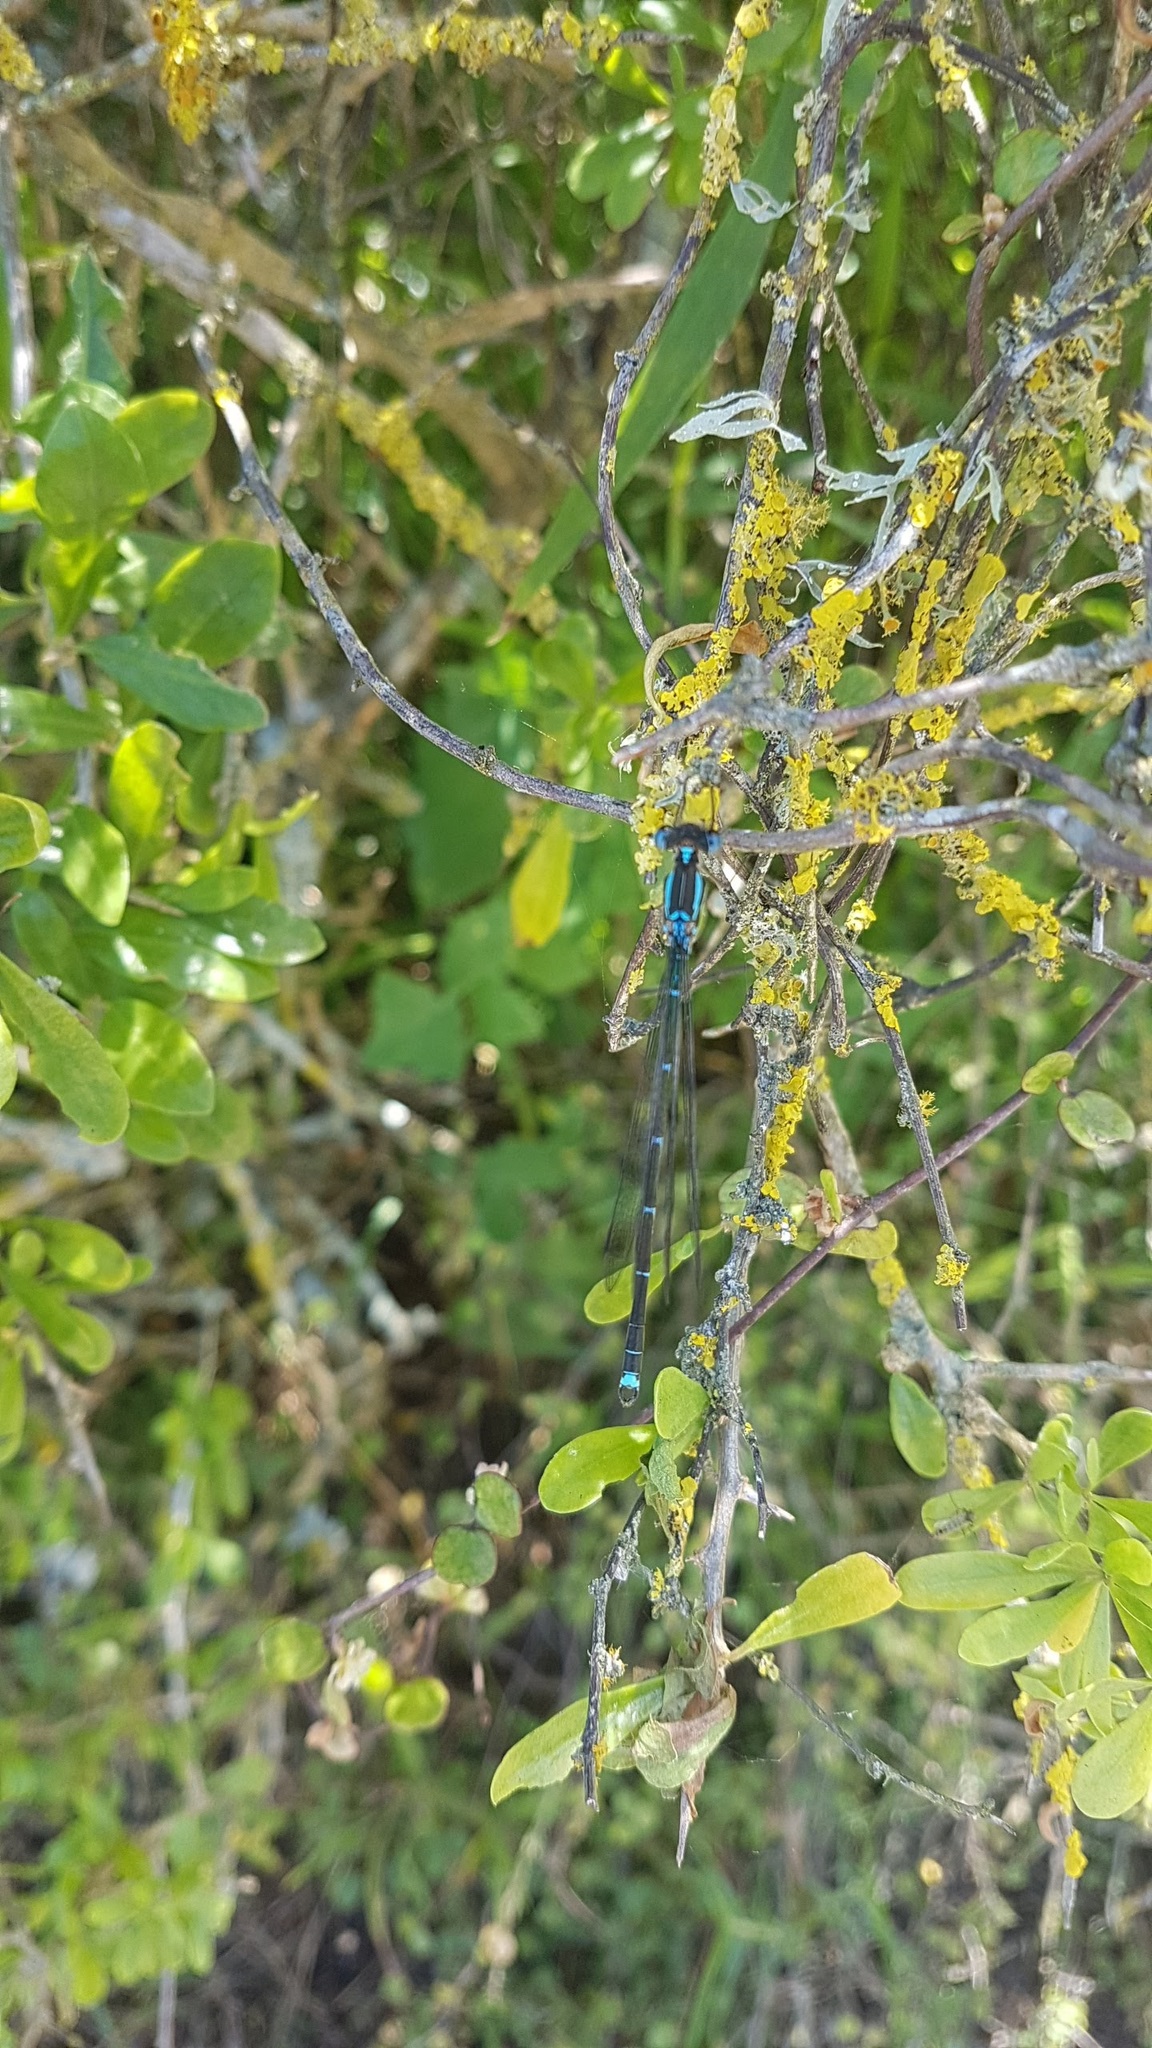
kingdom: Animalia
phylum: Arthropoda
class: Insecta
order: Odonata
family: Lestidae
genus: Austrolestes
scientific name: Austrolestes colensonis
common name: Blue damselfly
